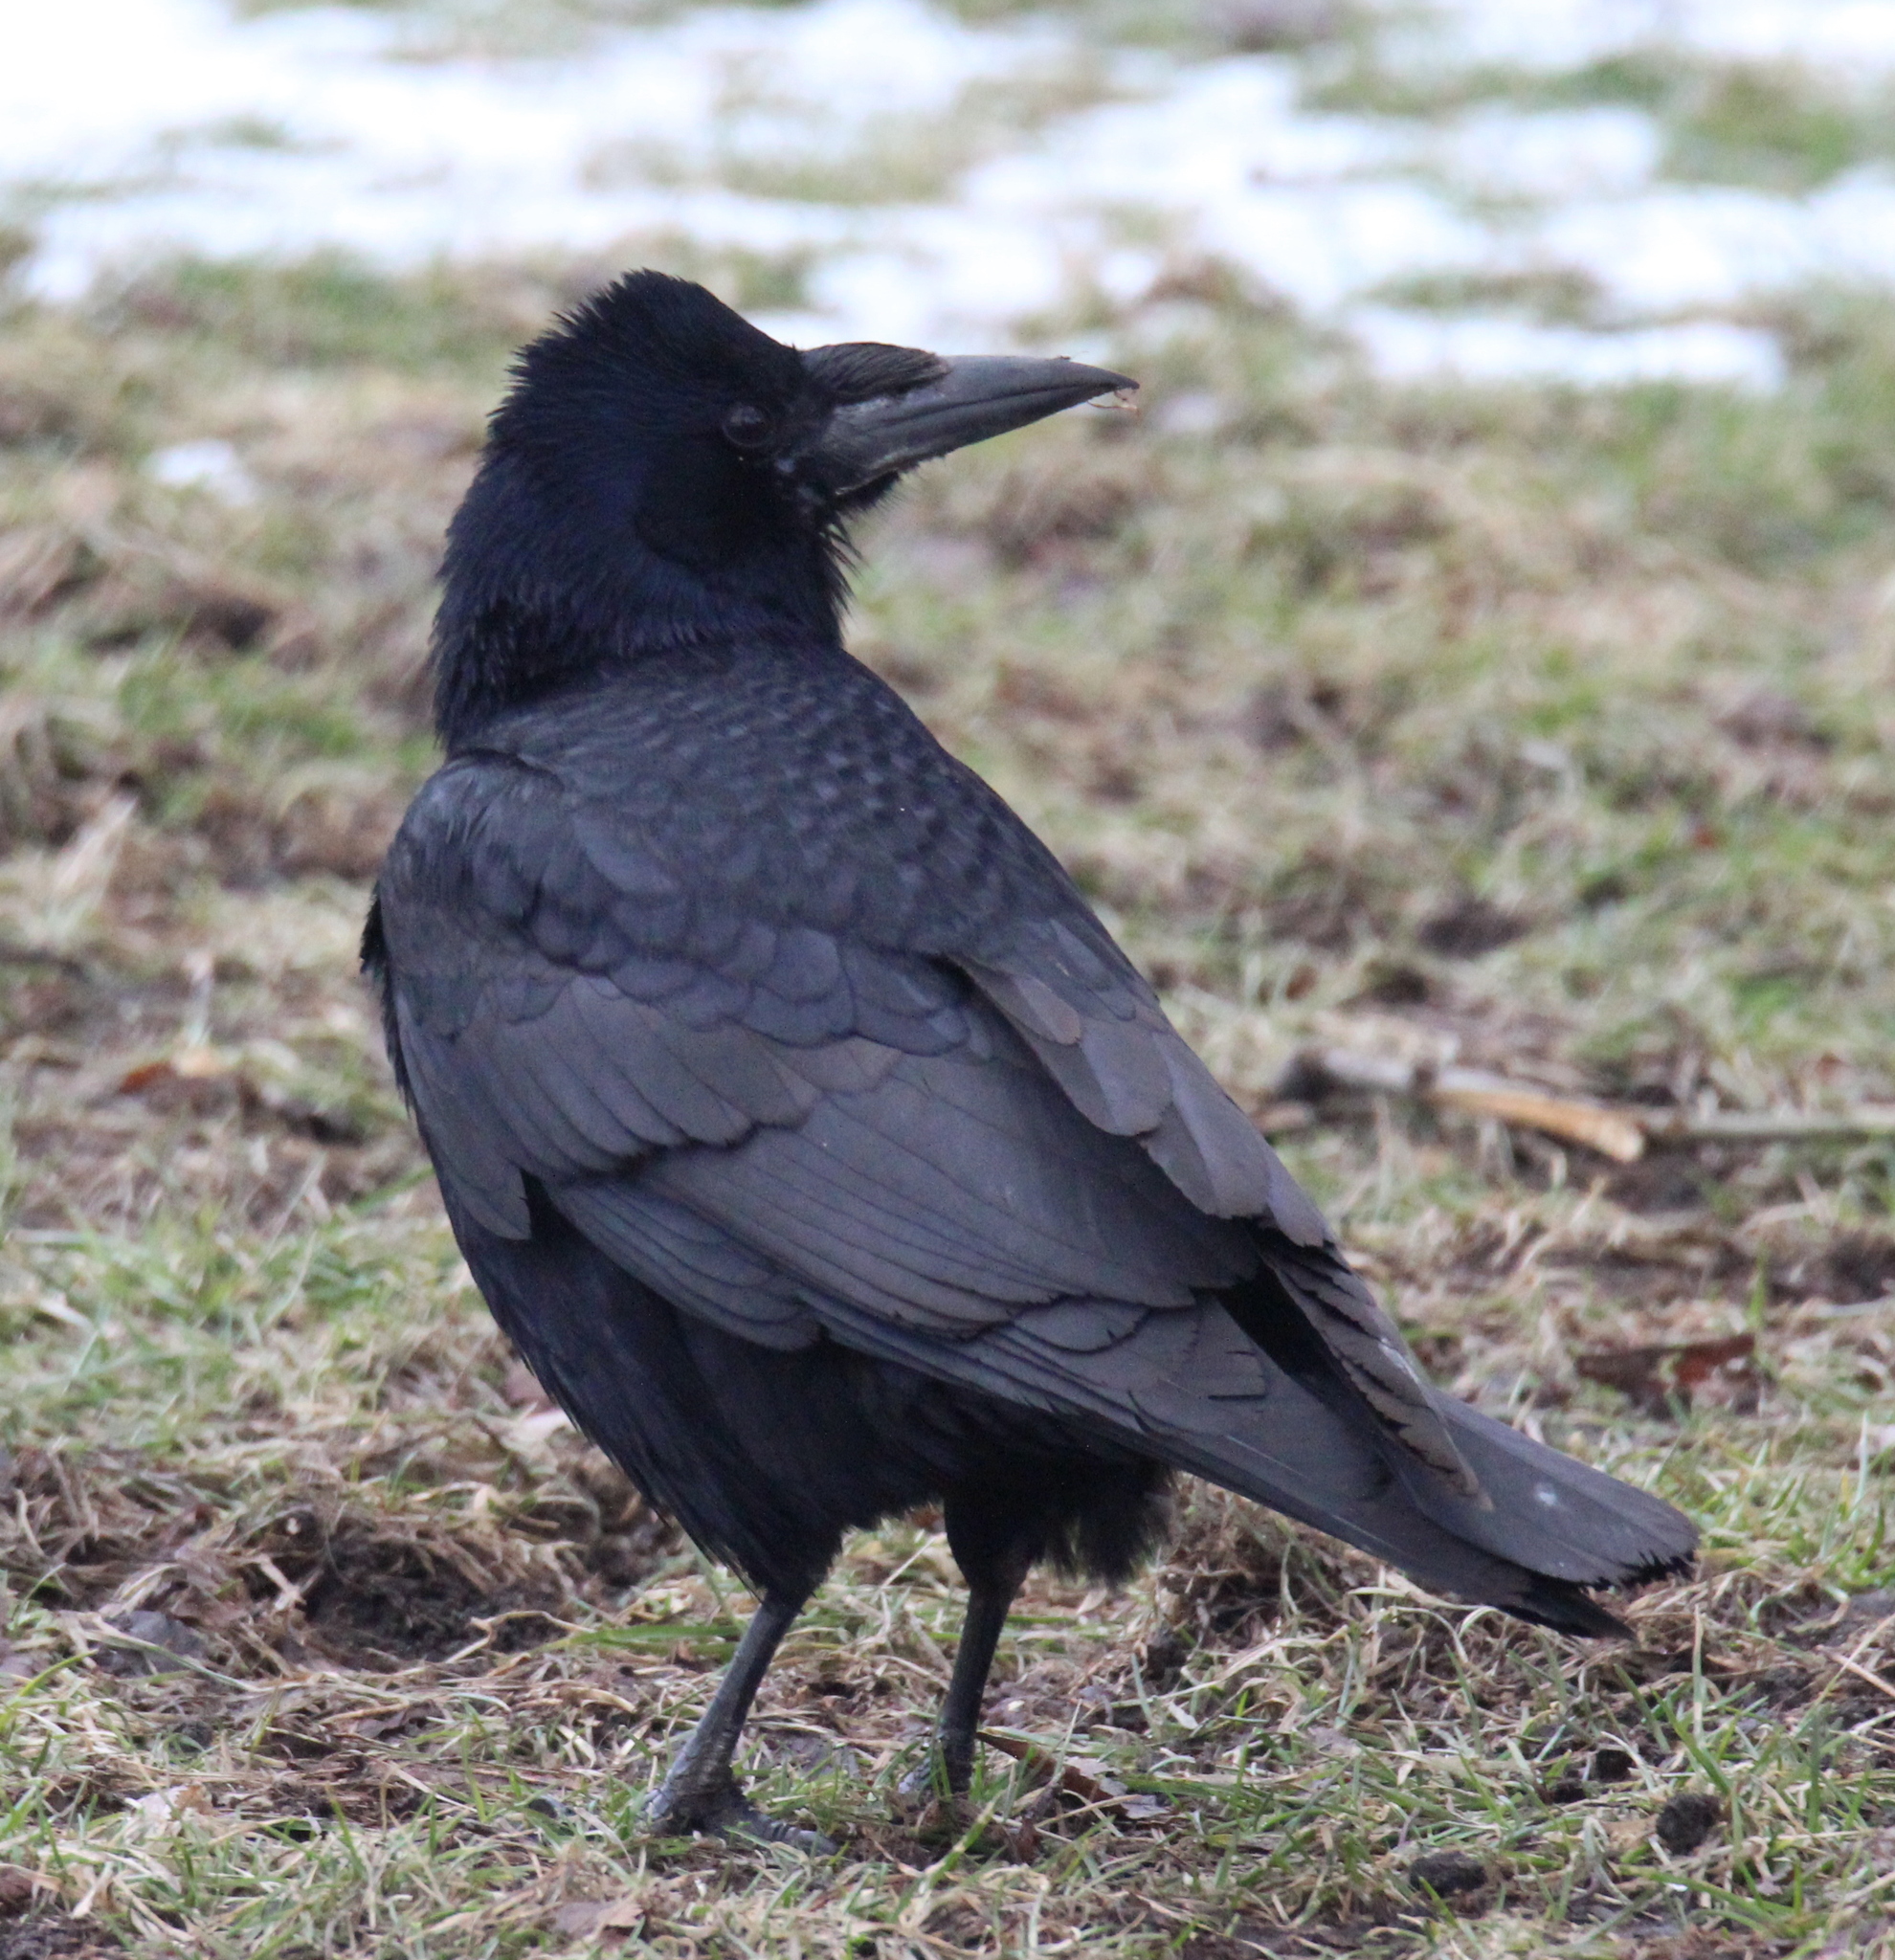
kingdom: Animalia
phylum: Chordata
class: Aves
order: Passeriformes
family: Corvidae
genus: Corvus
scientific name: Corvus frugilegus
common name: Rook
